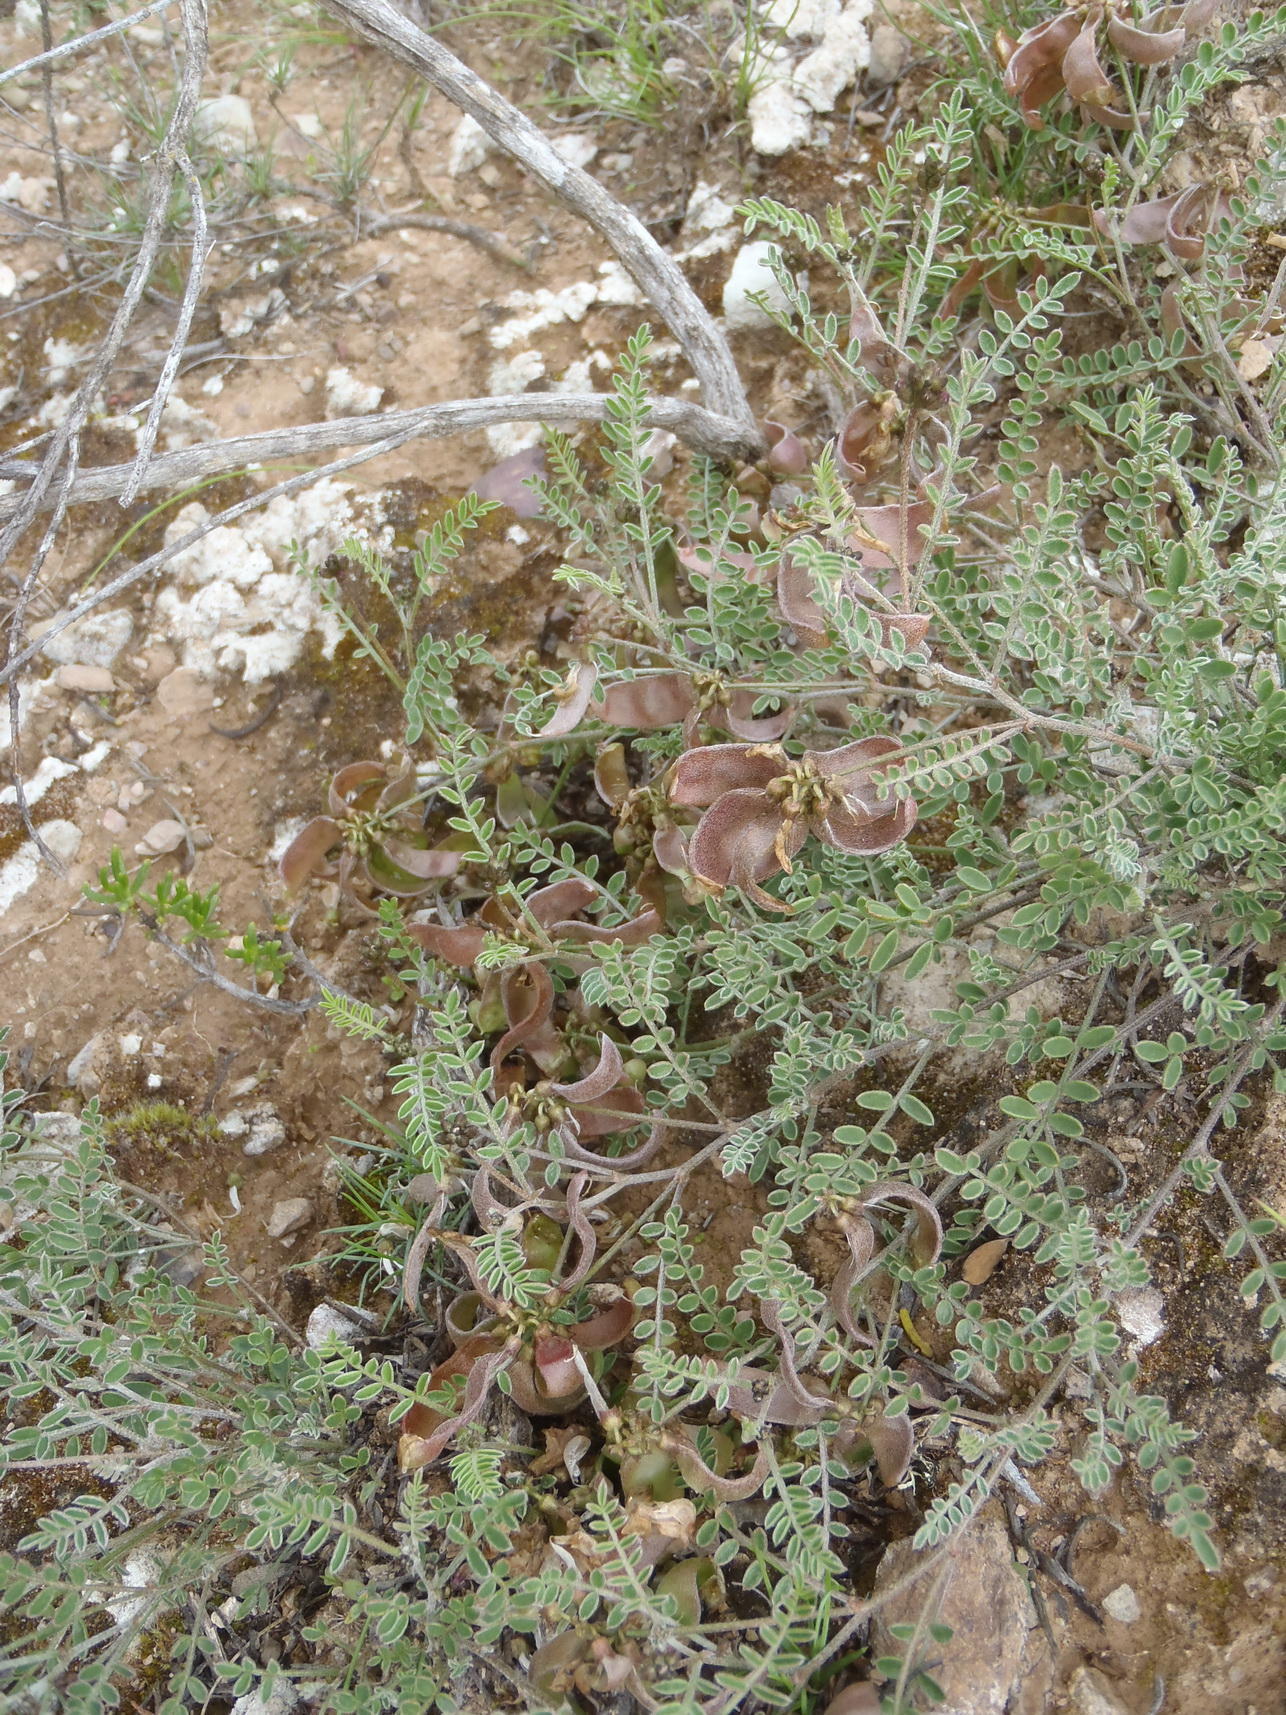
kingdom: Plantae
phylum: Tracheophyta
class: Magnoliopsida
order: Fabales
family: Fabaceae
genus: Lessertia
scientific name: Lessertia annularis
